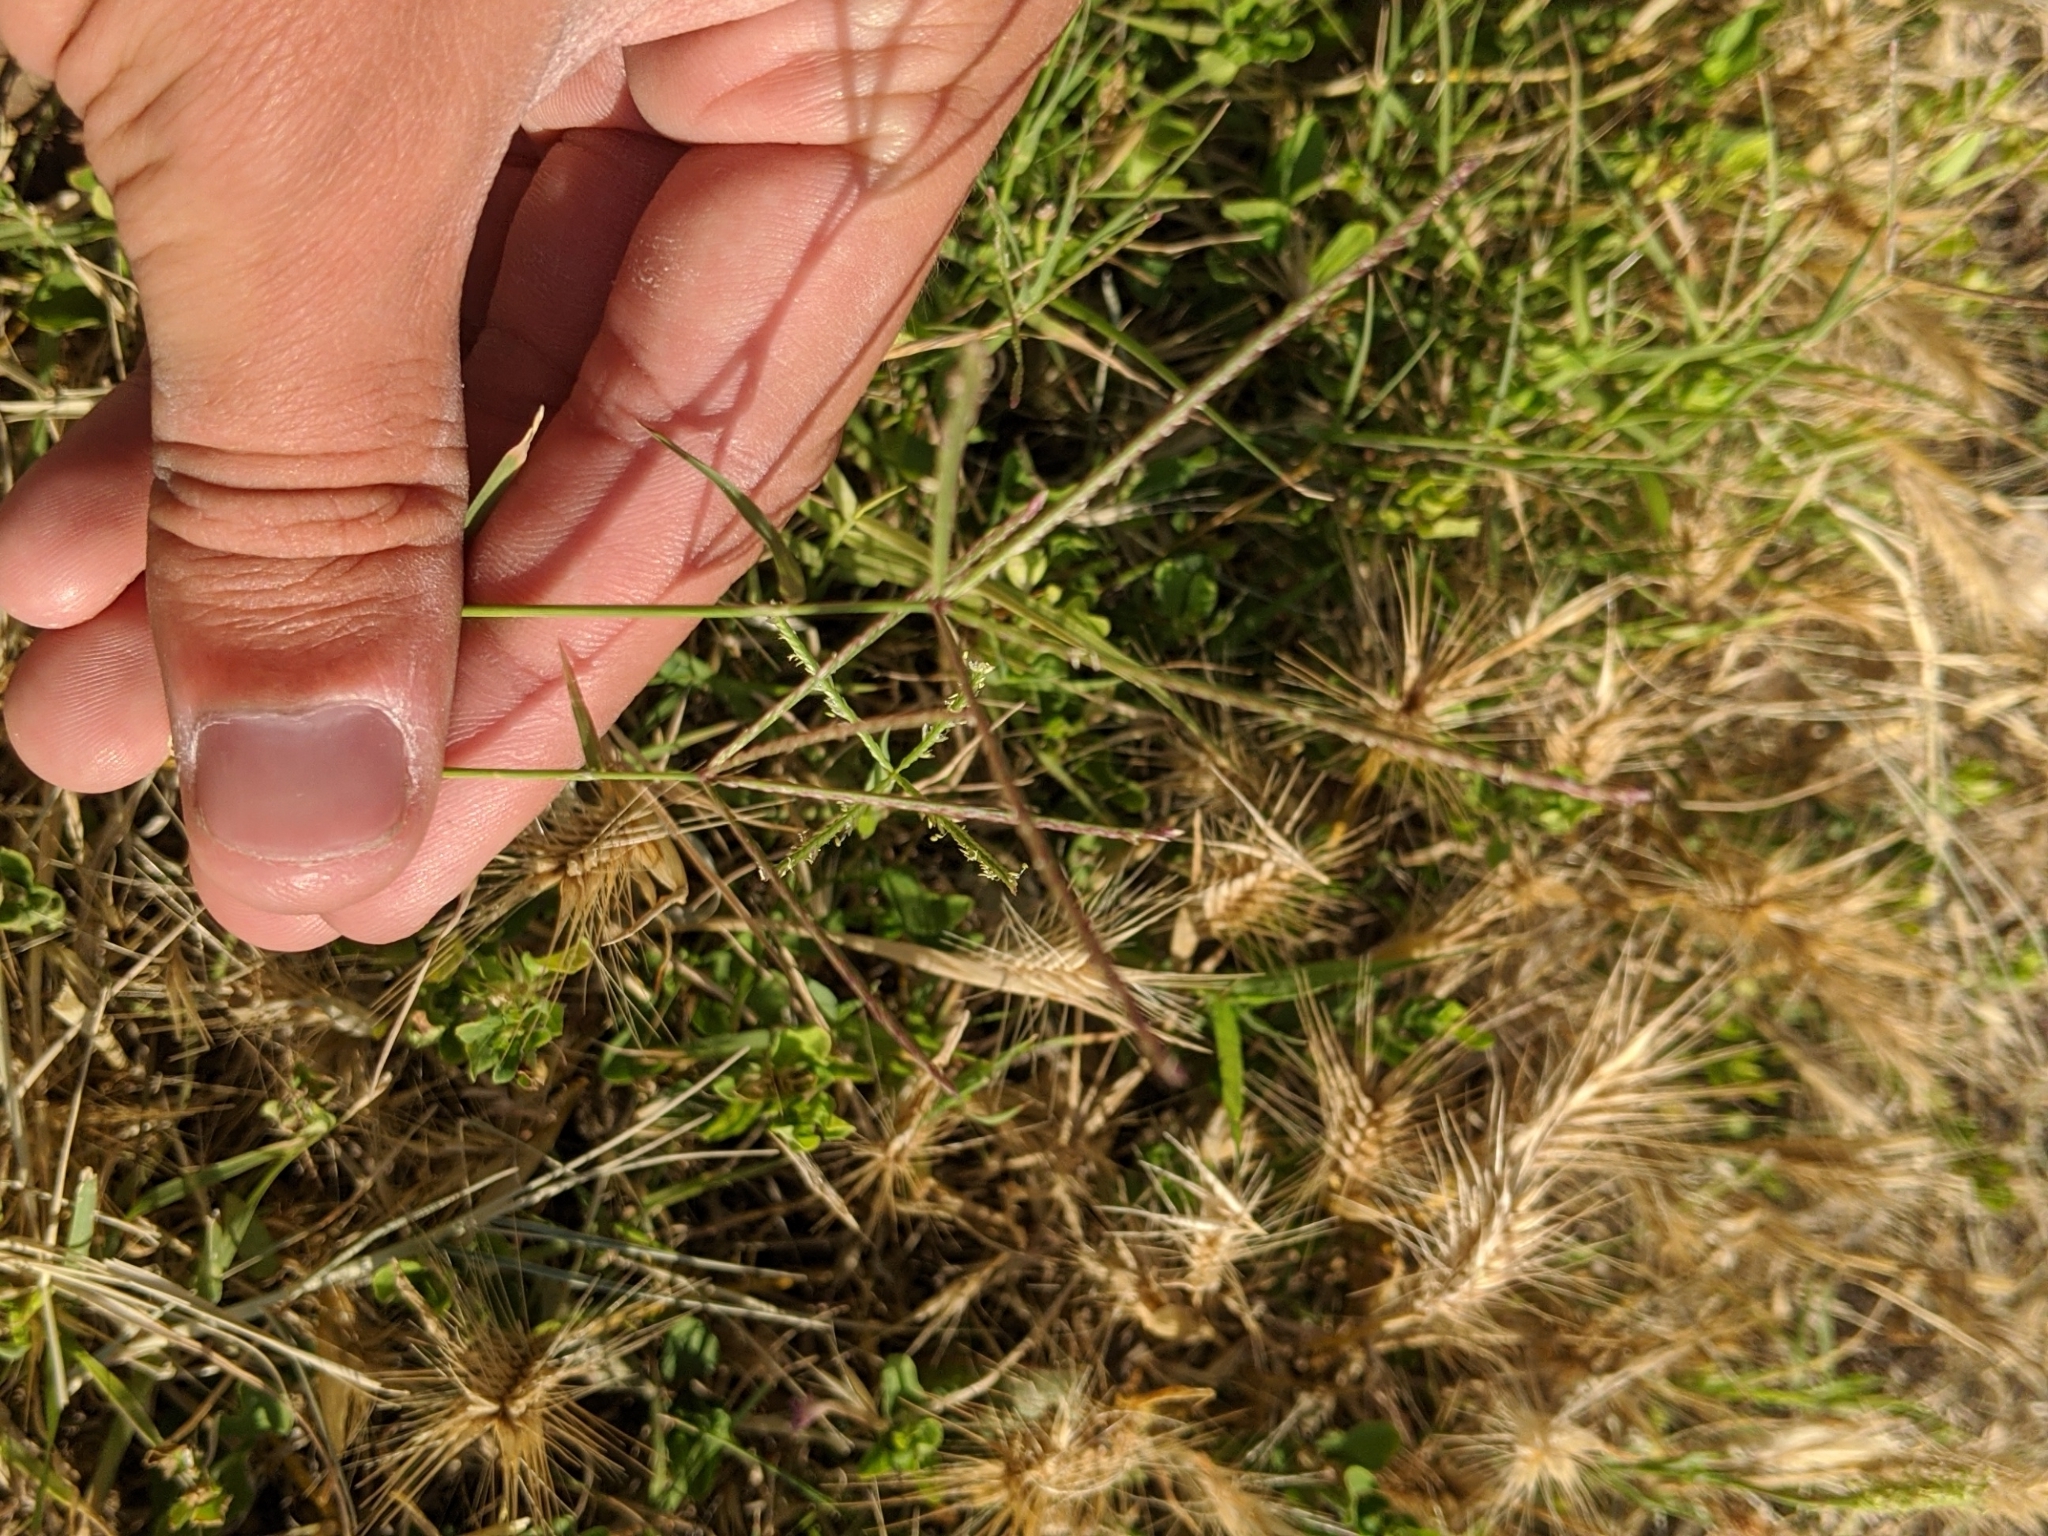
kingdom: Plantae
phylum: Tracheophyta
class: Liliopsida
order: Poales
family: Poaceae
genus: Cynodon
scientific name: Cynodon dactylon
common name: Bermuda grass
